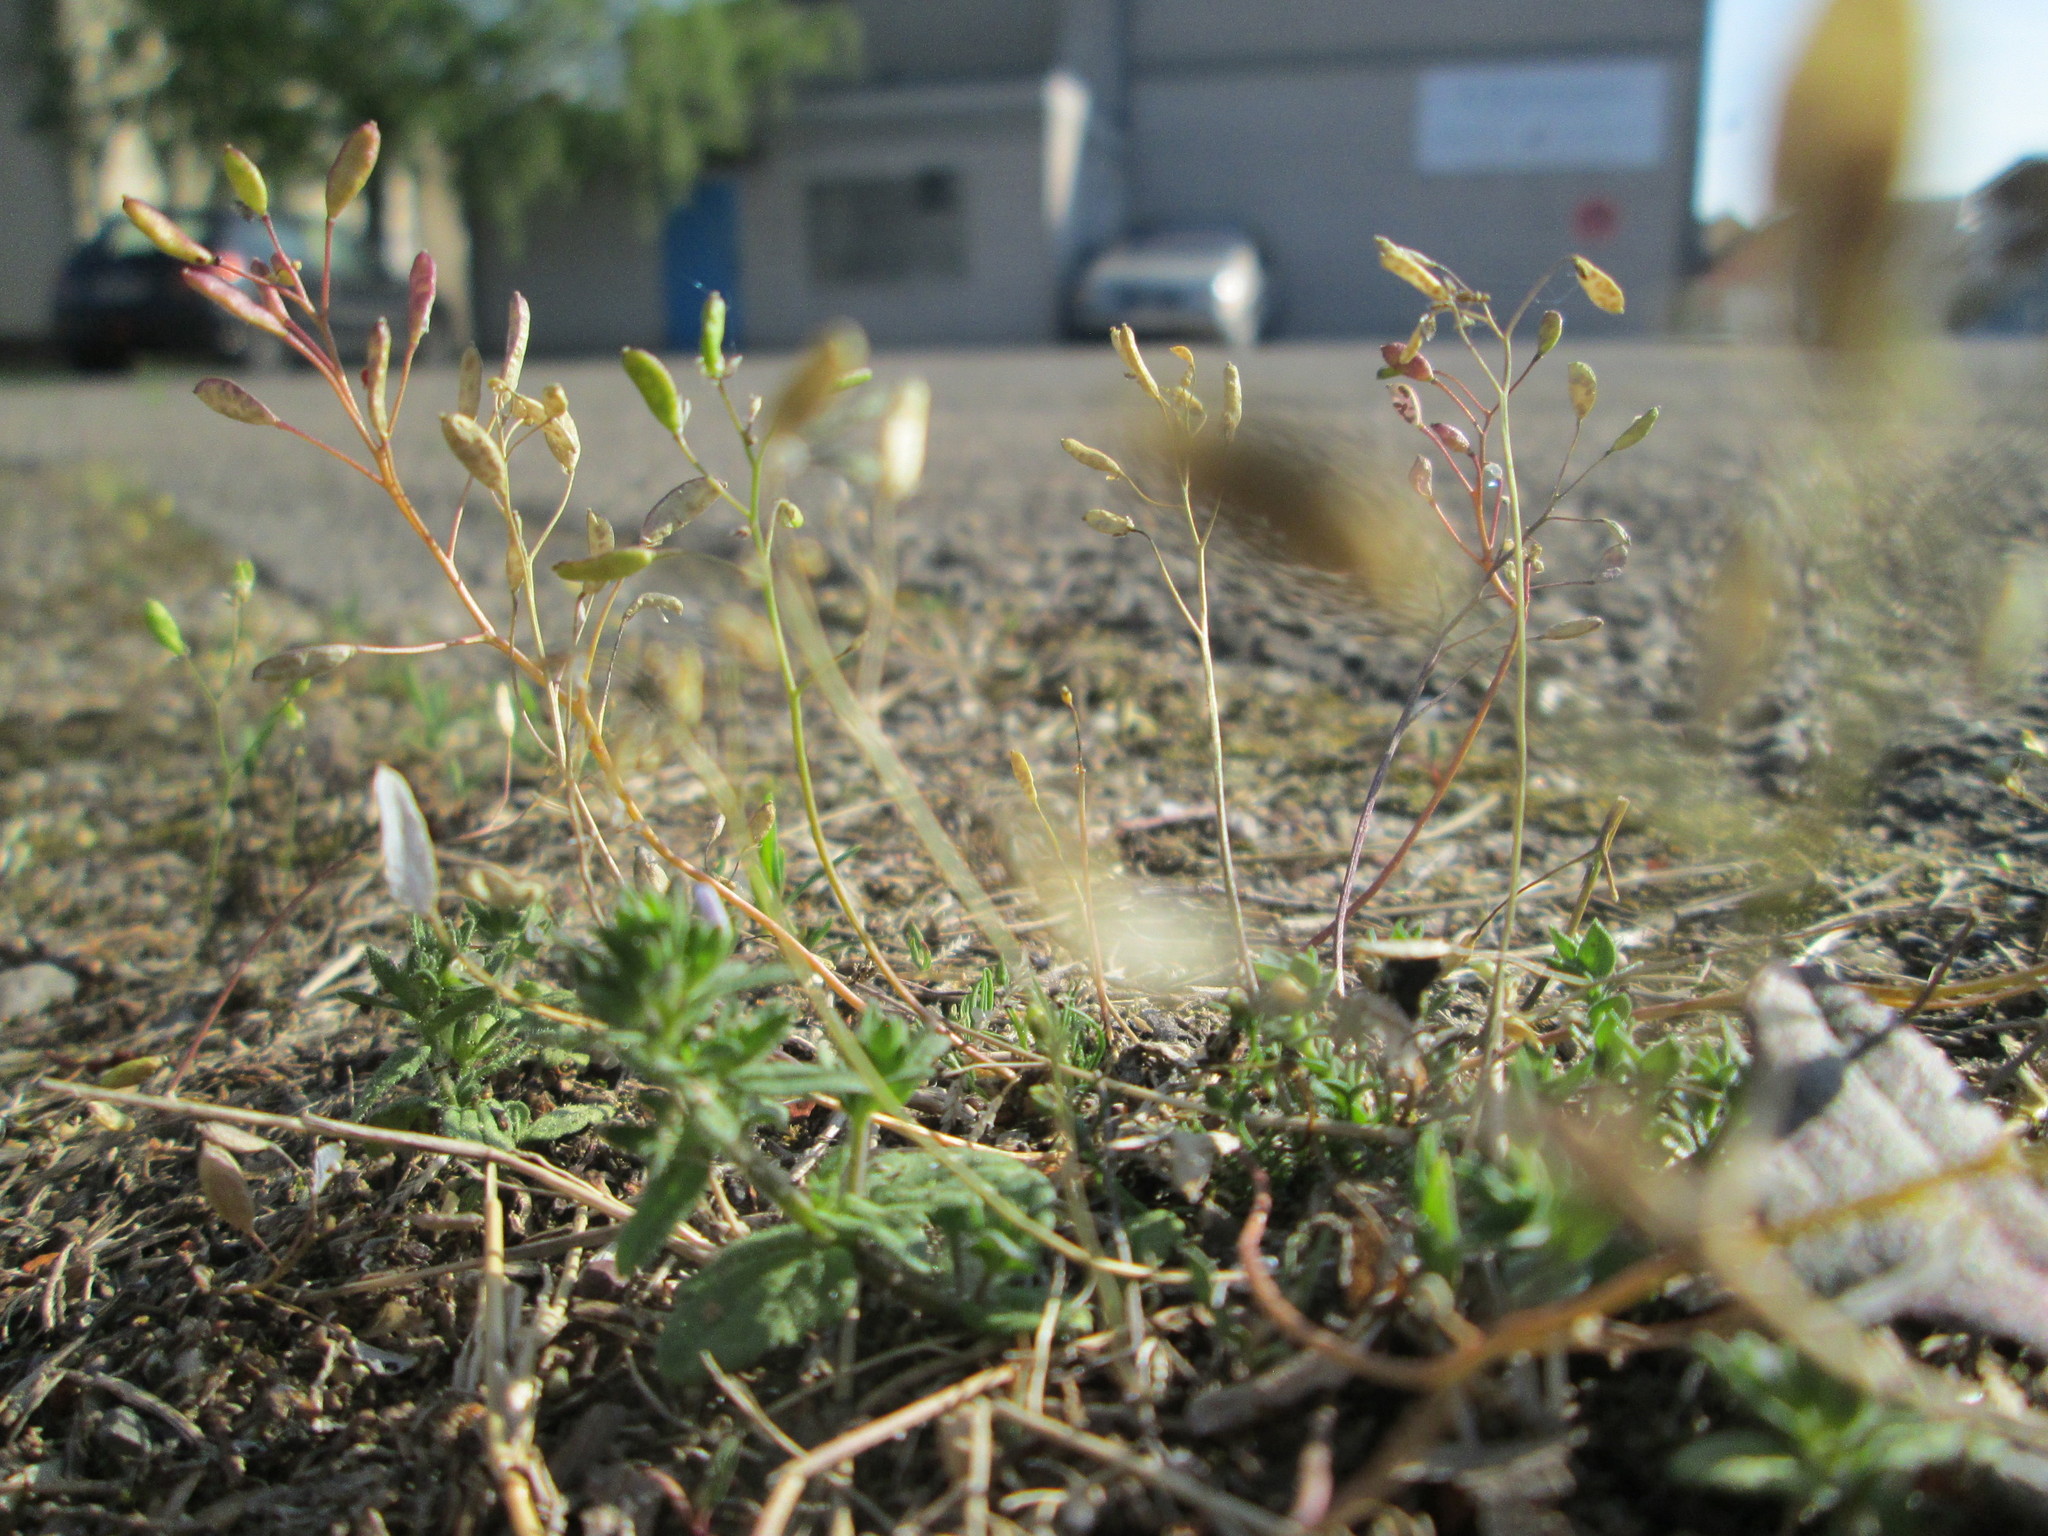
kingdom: Plantae
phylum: Tracheophyta
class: Magnoliopsida
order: Brassicales
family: Brassicaceae
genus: Draba
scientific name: Draba verna
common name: Spring draba
